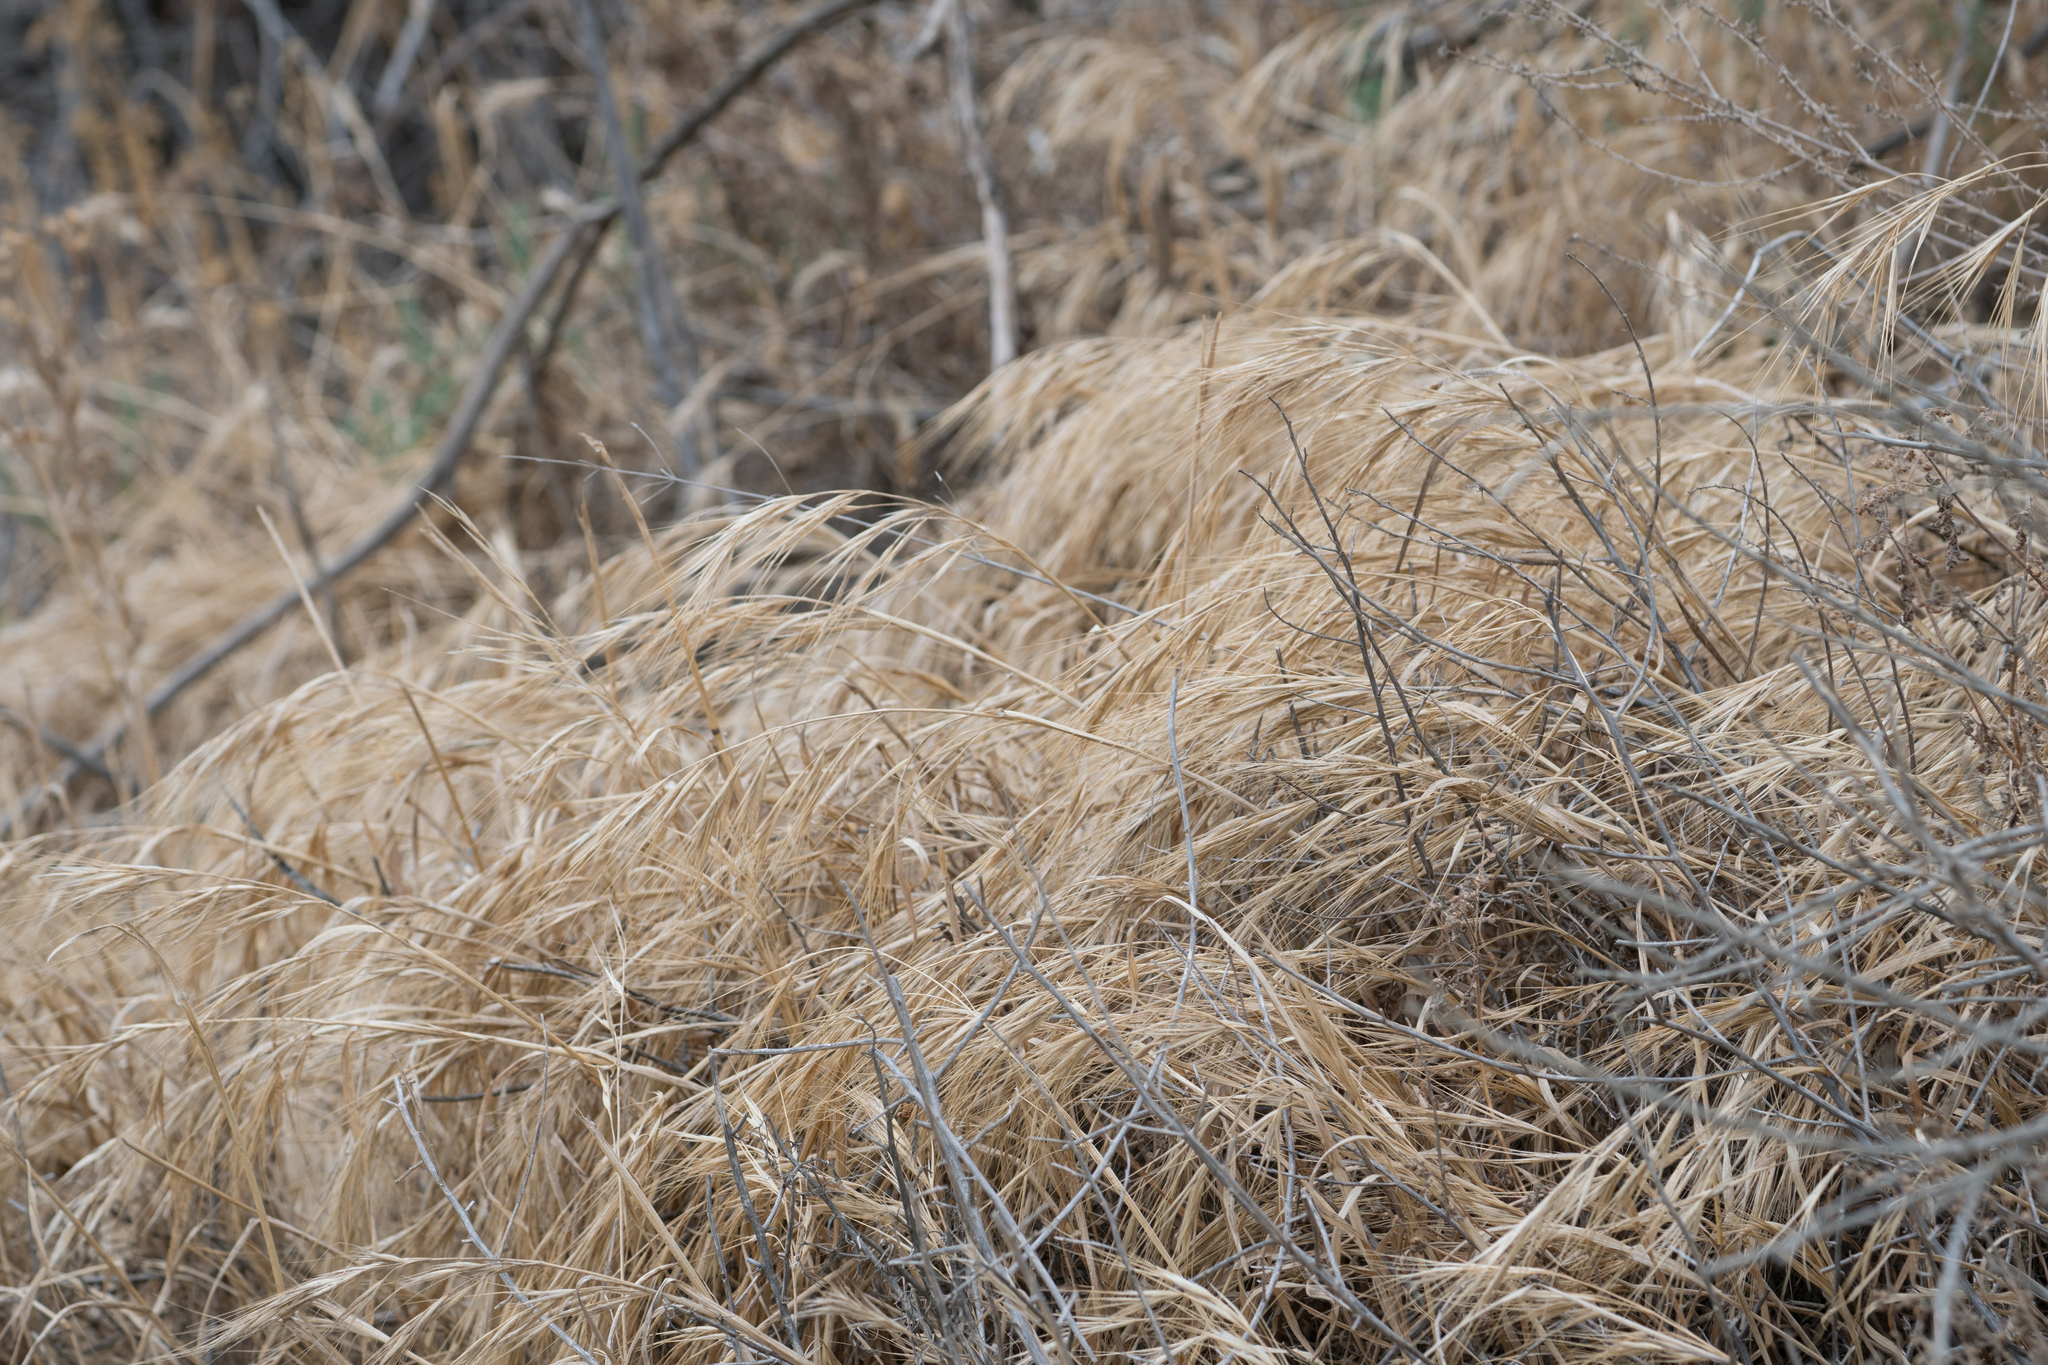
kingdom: Plantae
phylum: Tracheophyta
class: Liliopsida
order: Poales
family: Poaceae
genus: Bromus
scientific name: Bromus diandrus
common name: Ripgut brome
